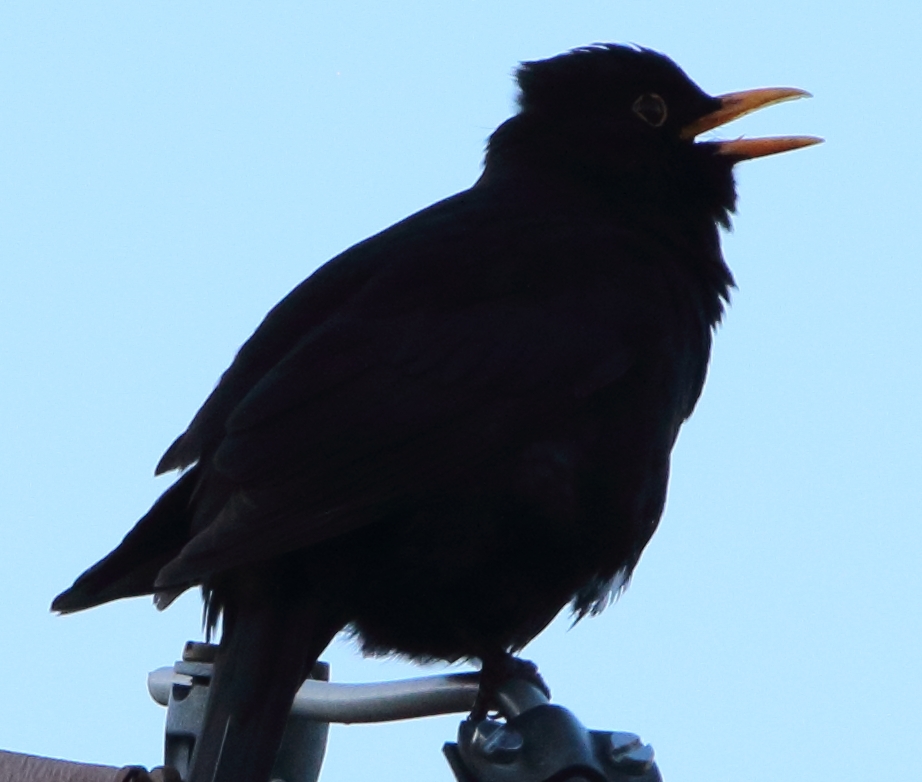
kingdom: Animalia
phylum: Chordata
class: Aves
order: Passeriformes
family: Turdidae
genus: Turdus
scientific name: Turdus merula
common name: Common blackbird
